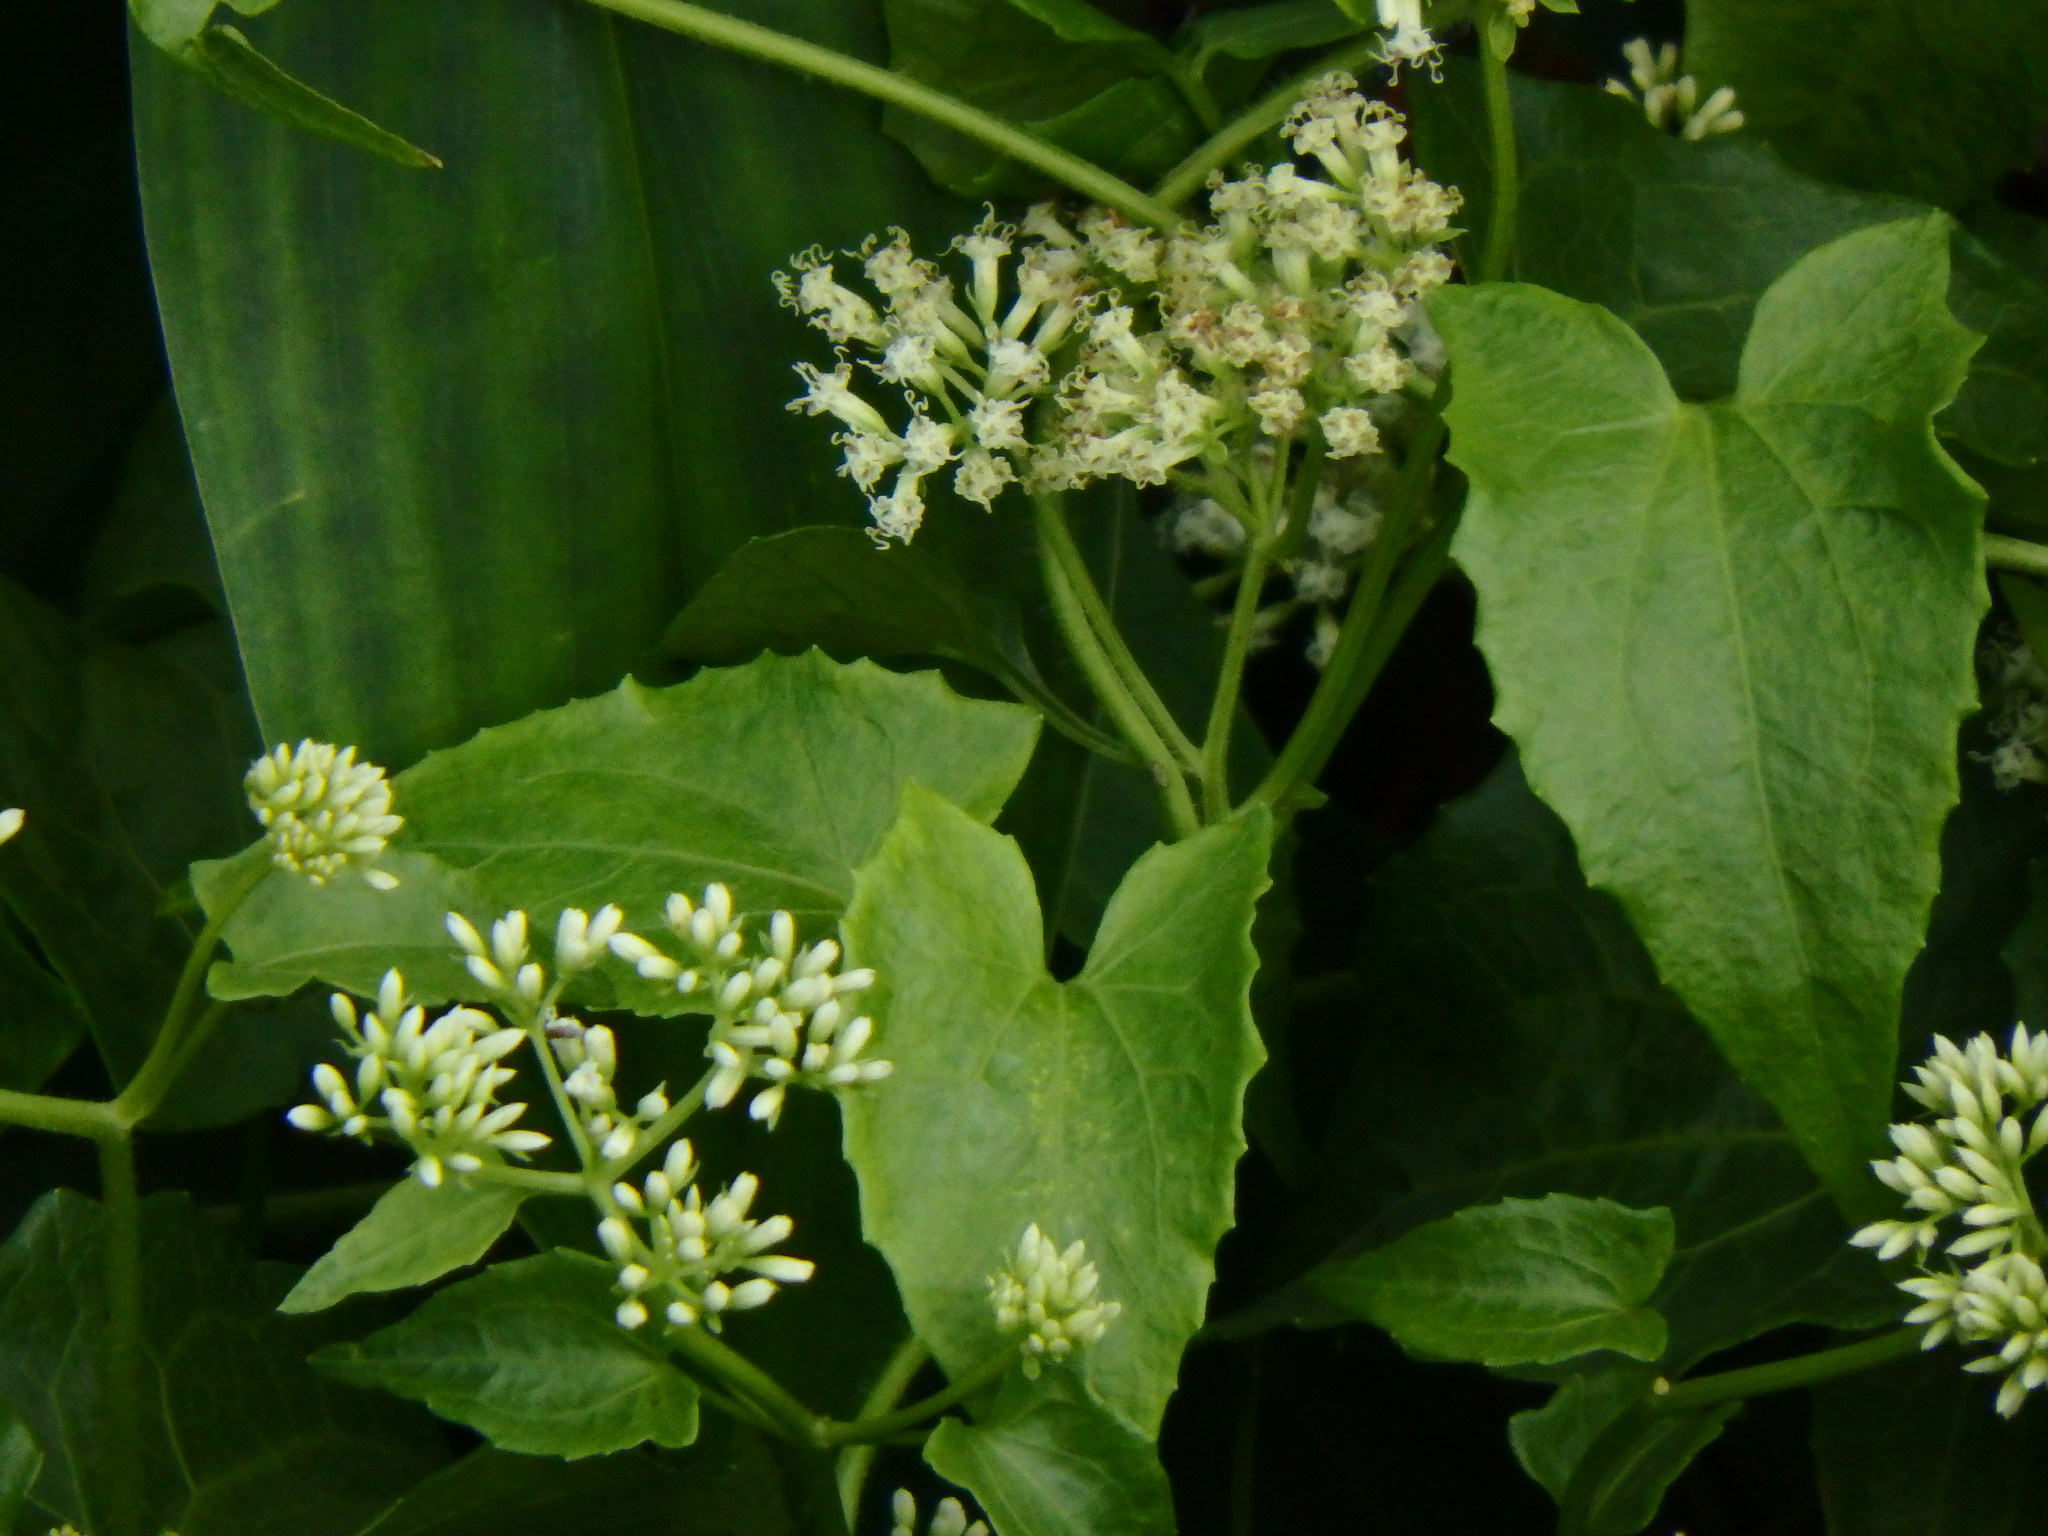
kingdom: Plantae
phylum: Tracheophyta
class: Magnoliopsida
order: Asterales
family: Asteraceae
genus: Mikania
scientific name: Mikania micrantha
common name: Mile-a-minute
